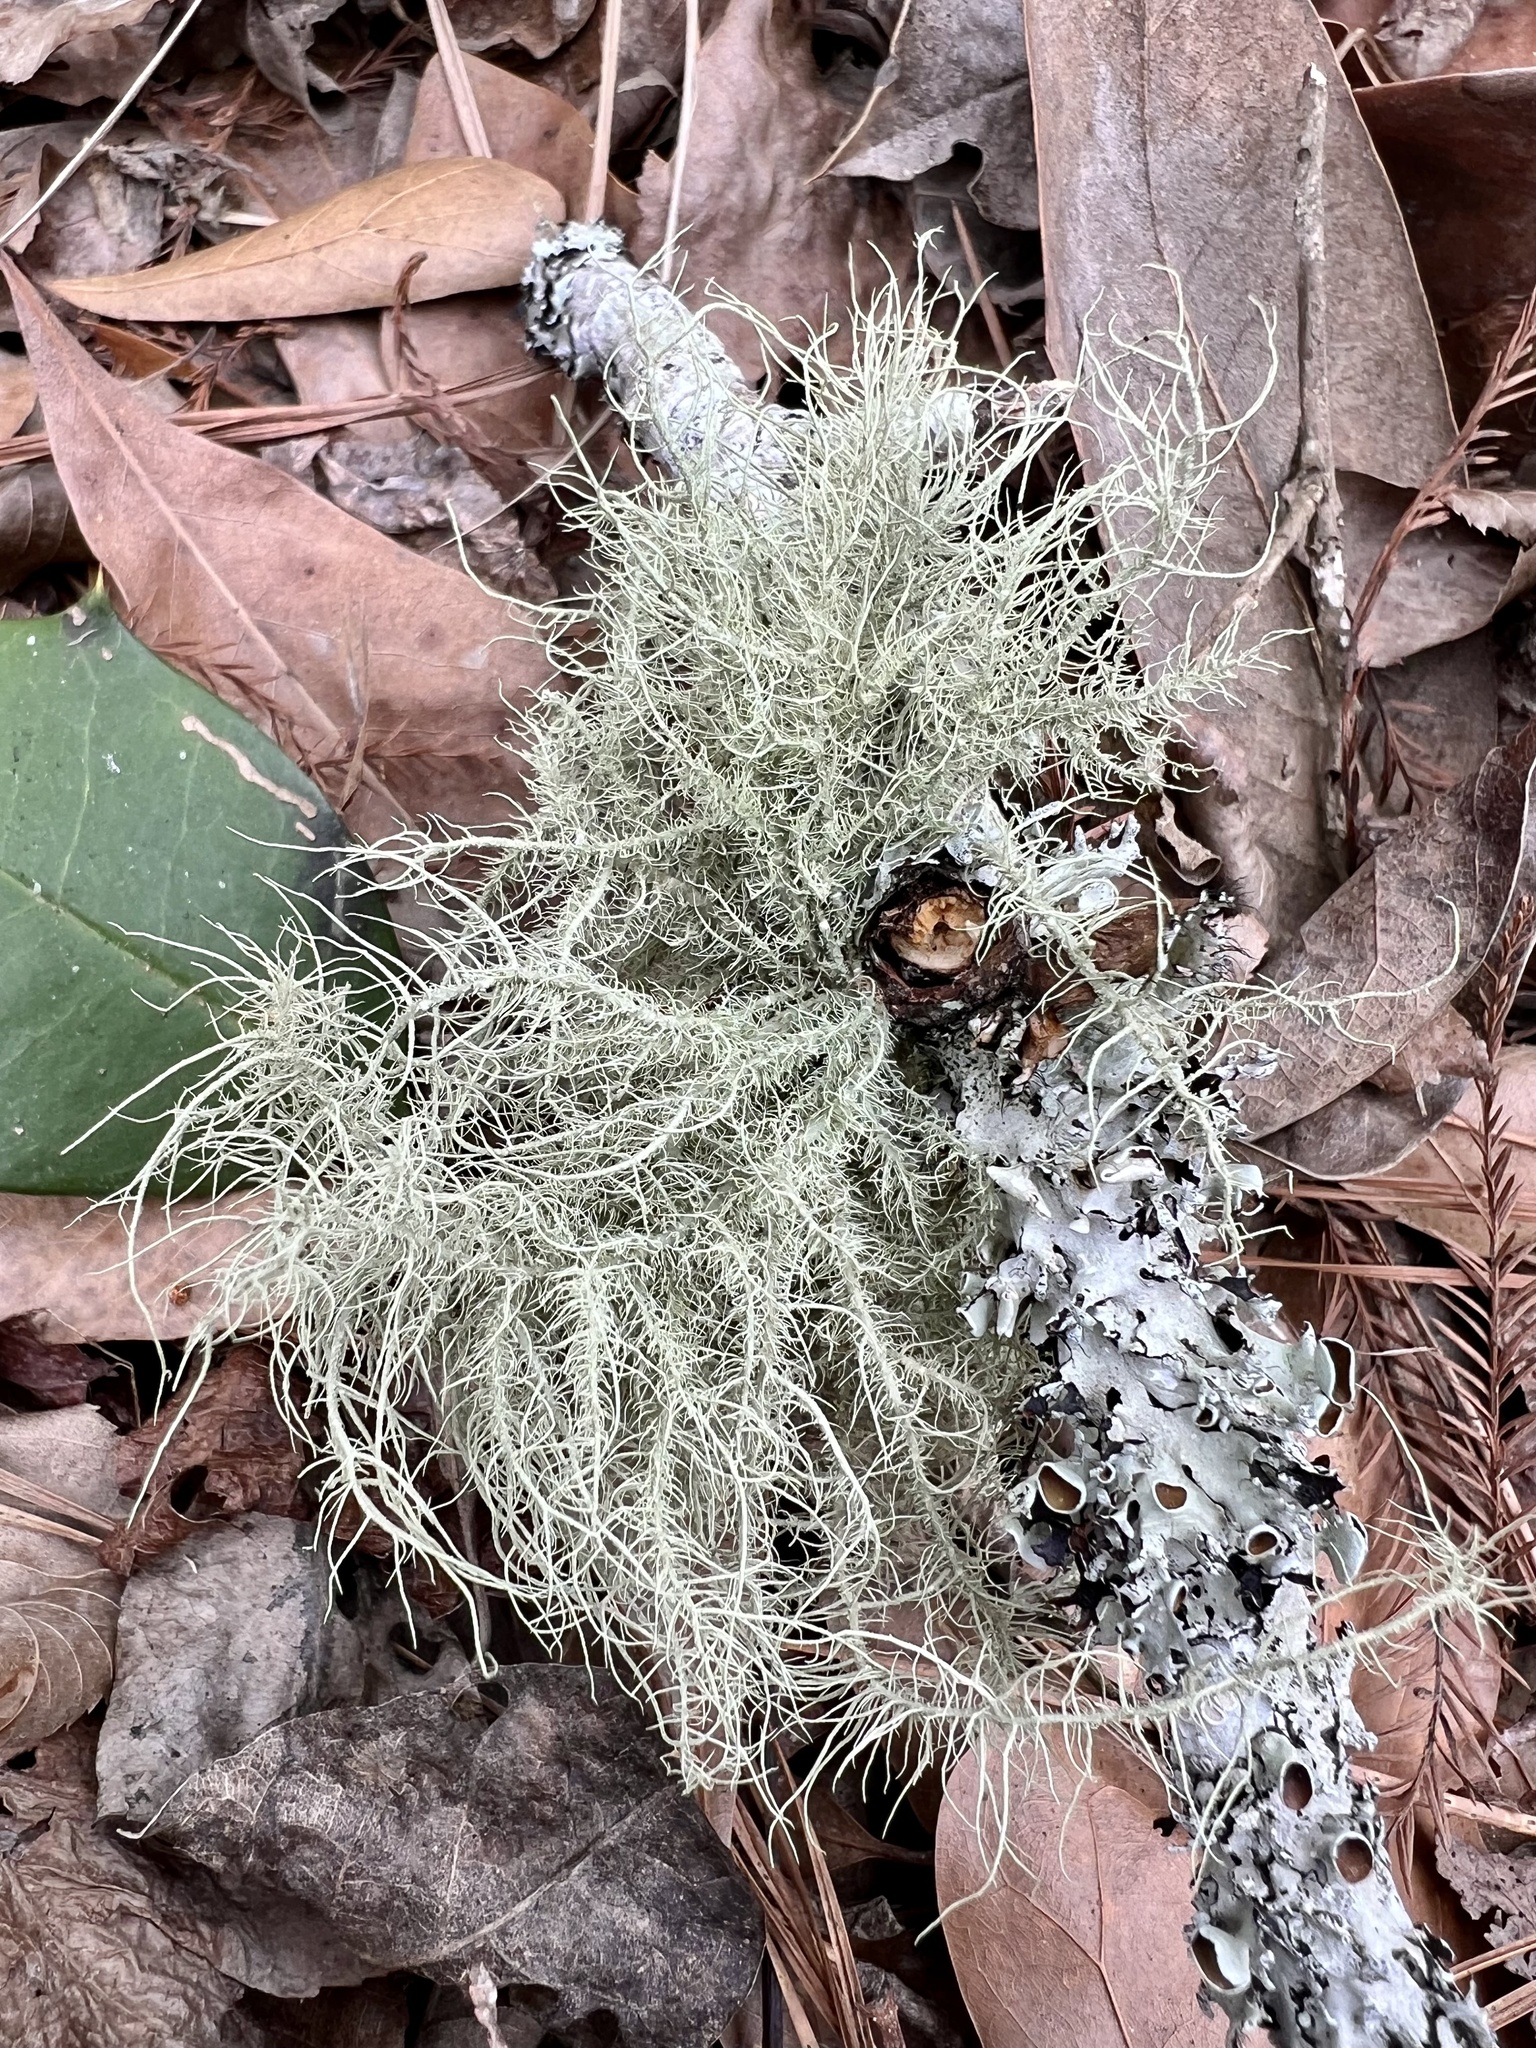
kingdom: Fungi
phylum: Ascomycota
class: Lecanoromycetes
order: Lecanorales
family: Parmeliaceae
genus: Usnea
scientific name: Usnea strigosa
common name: Bushy beard lichen
